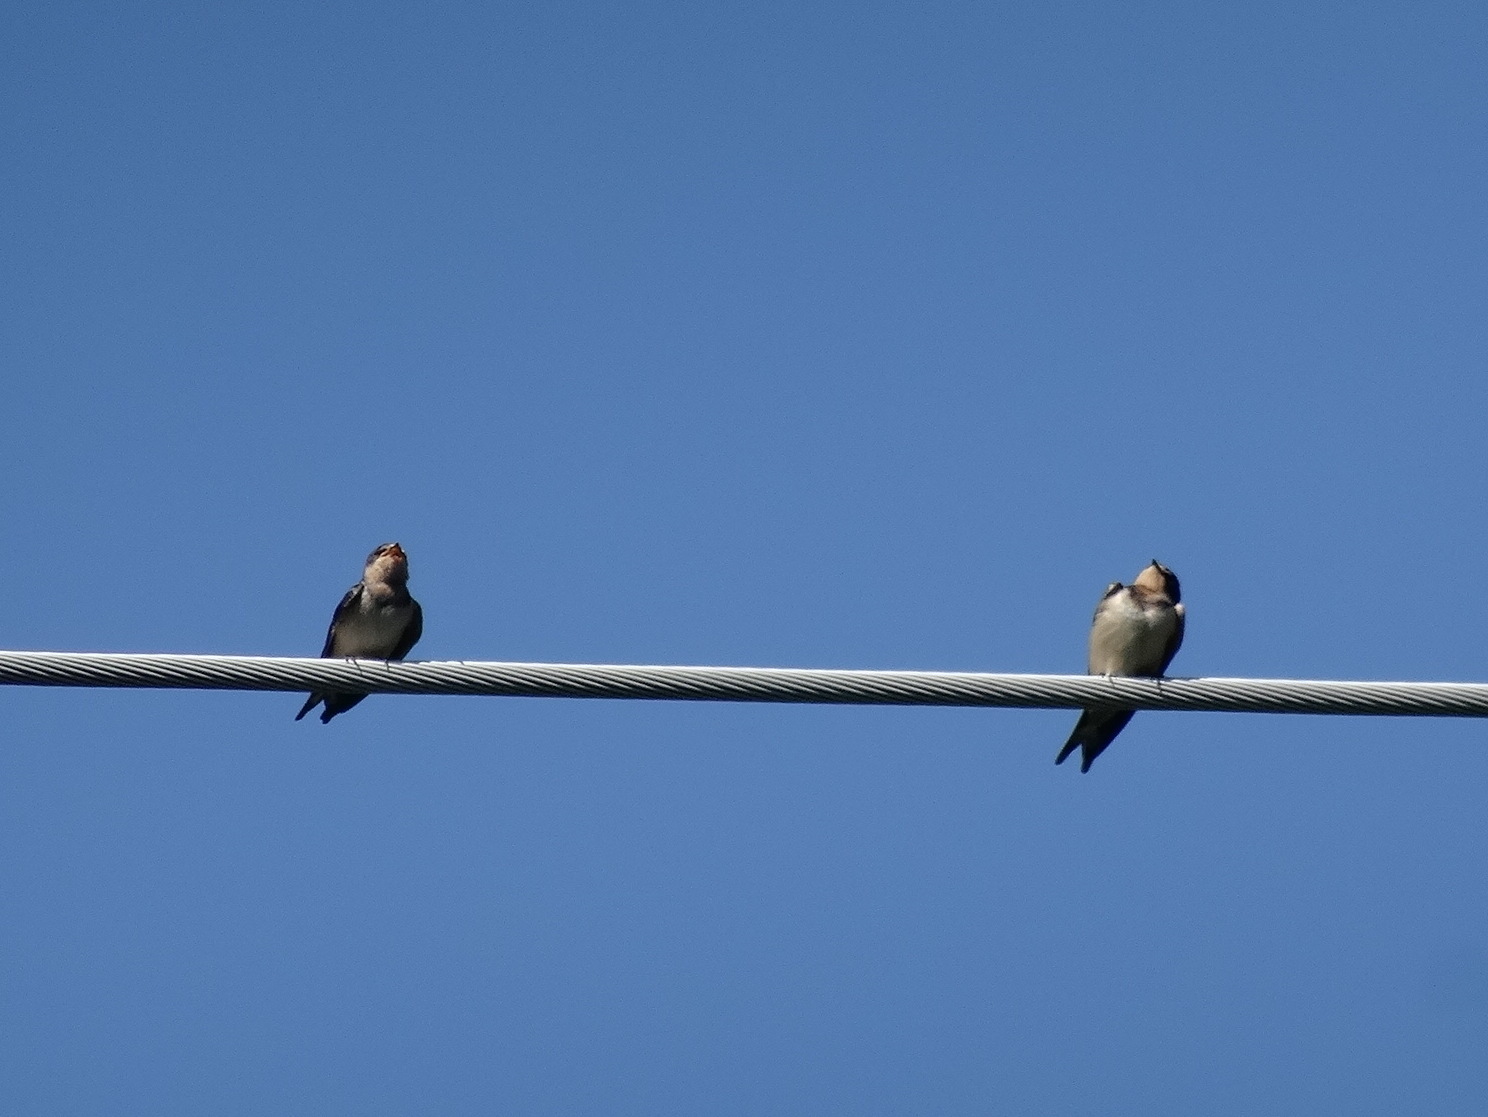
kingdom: Animalia
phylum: Chordata
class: Aves
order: Passeriformes
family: Hirundinidae
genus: Hirundo
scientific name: Hirundo rustica
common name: Barn swallow
